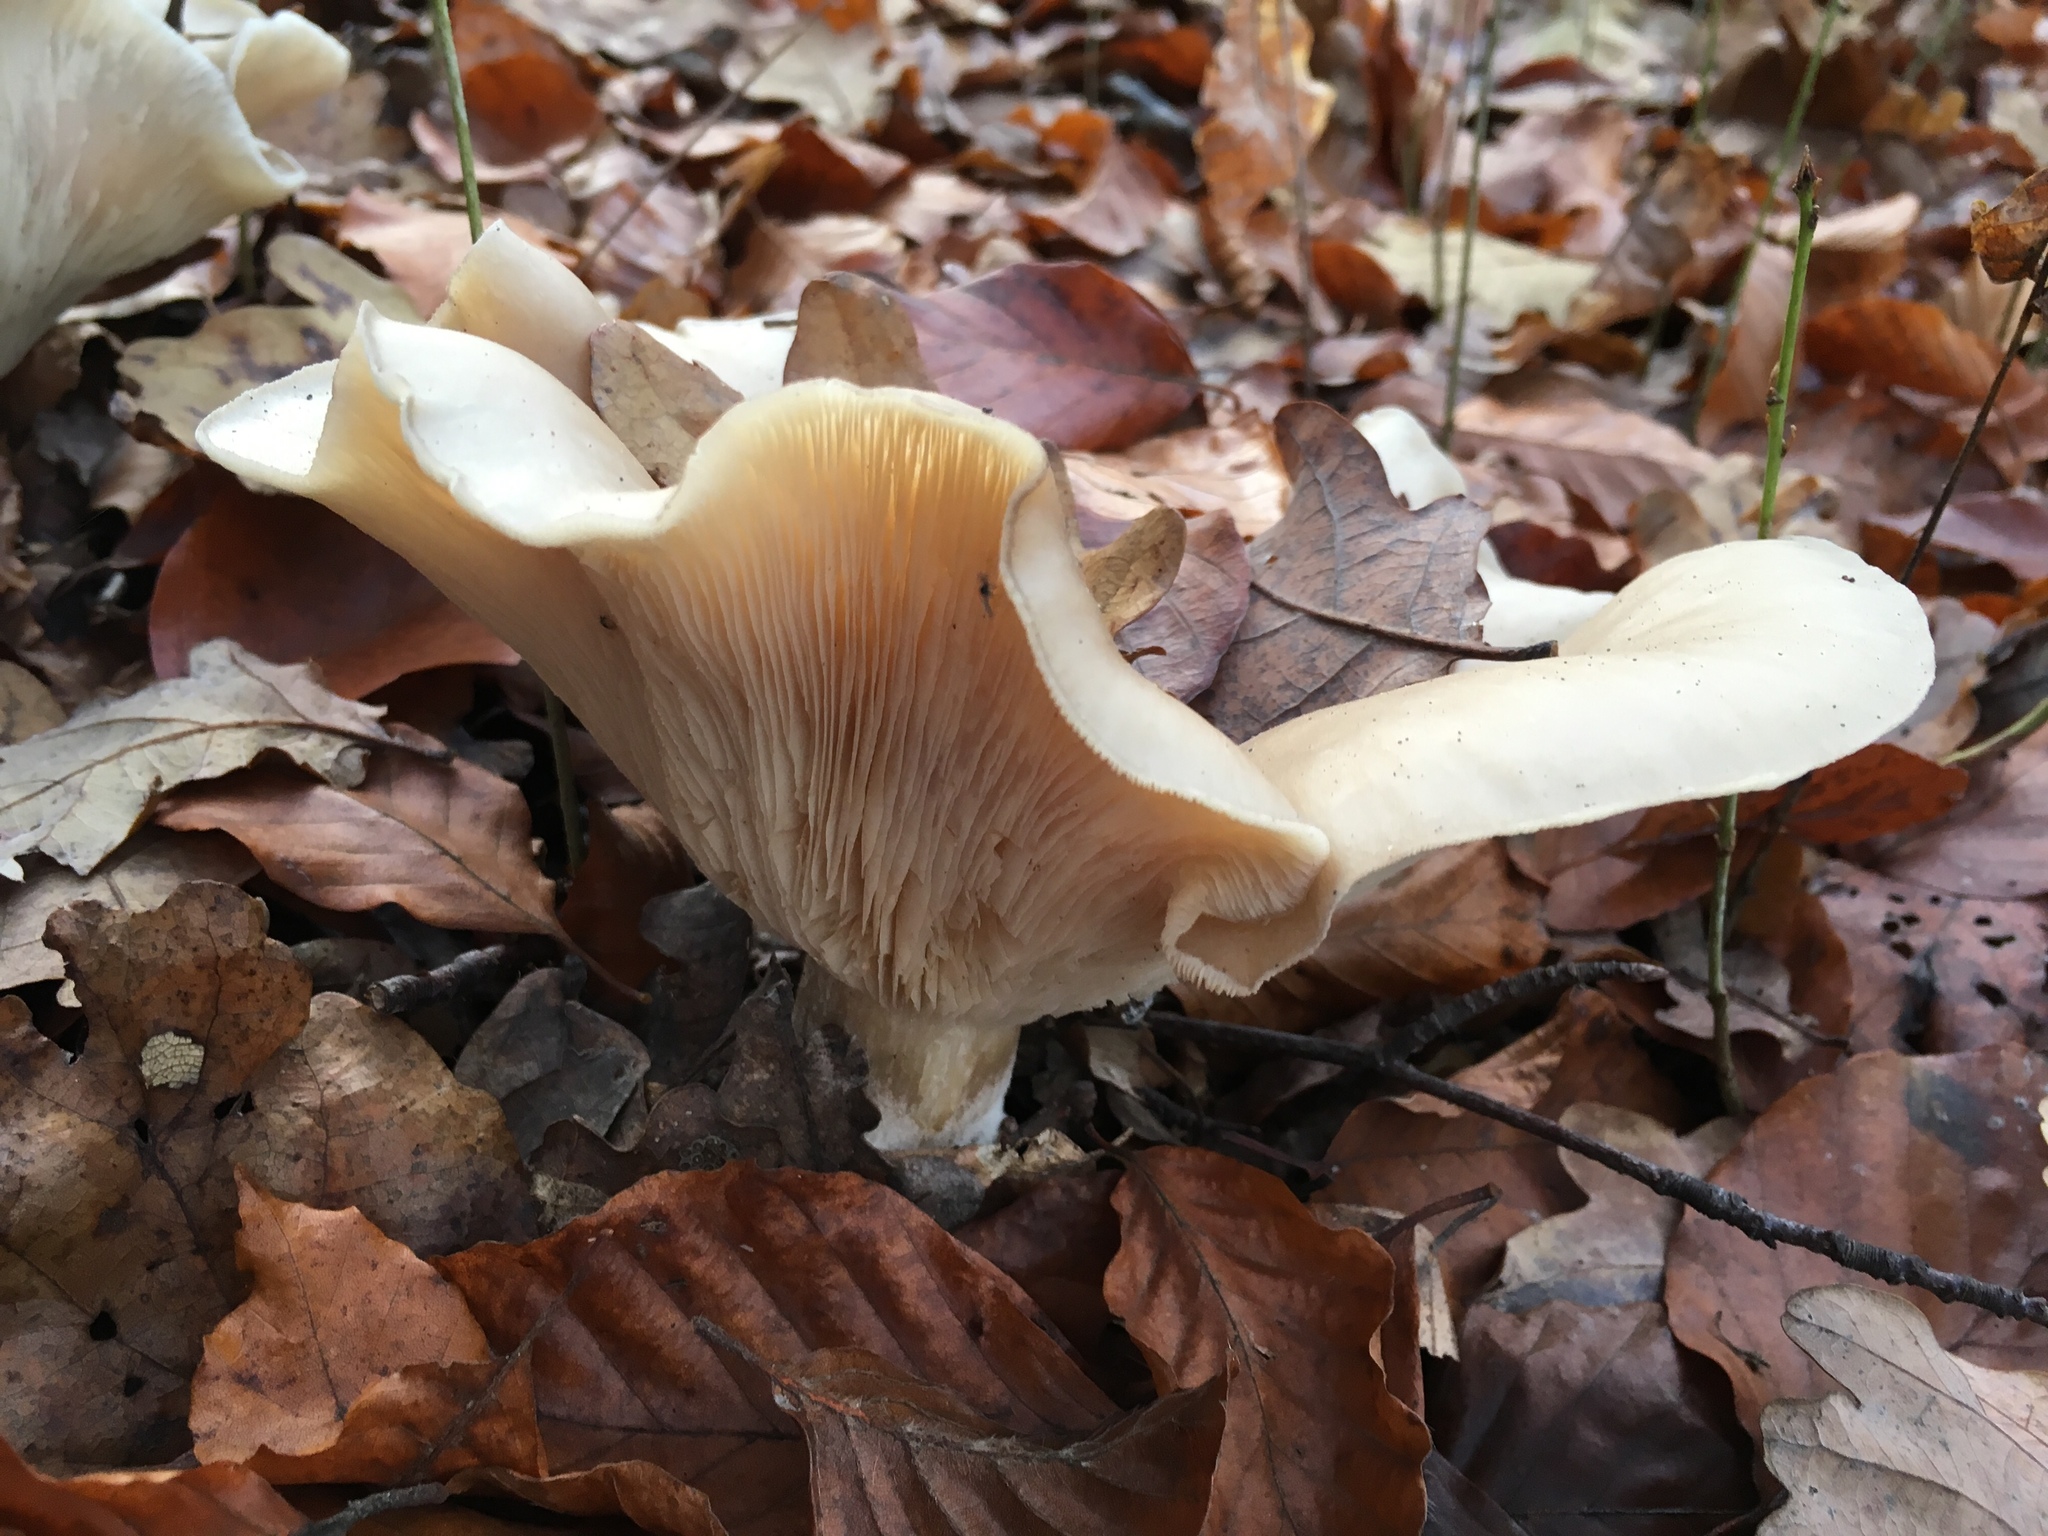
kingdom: Fungi
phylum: Basidiomycota
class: Agaricomycetes
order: Agaricales
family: Tricholomataceae
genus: Clitocybe
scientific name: Clitocybe nebularis
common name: Clouded agaric
